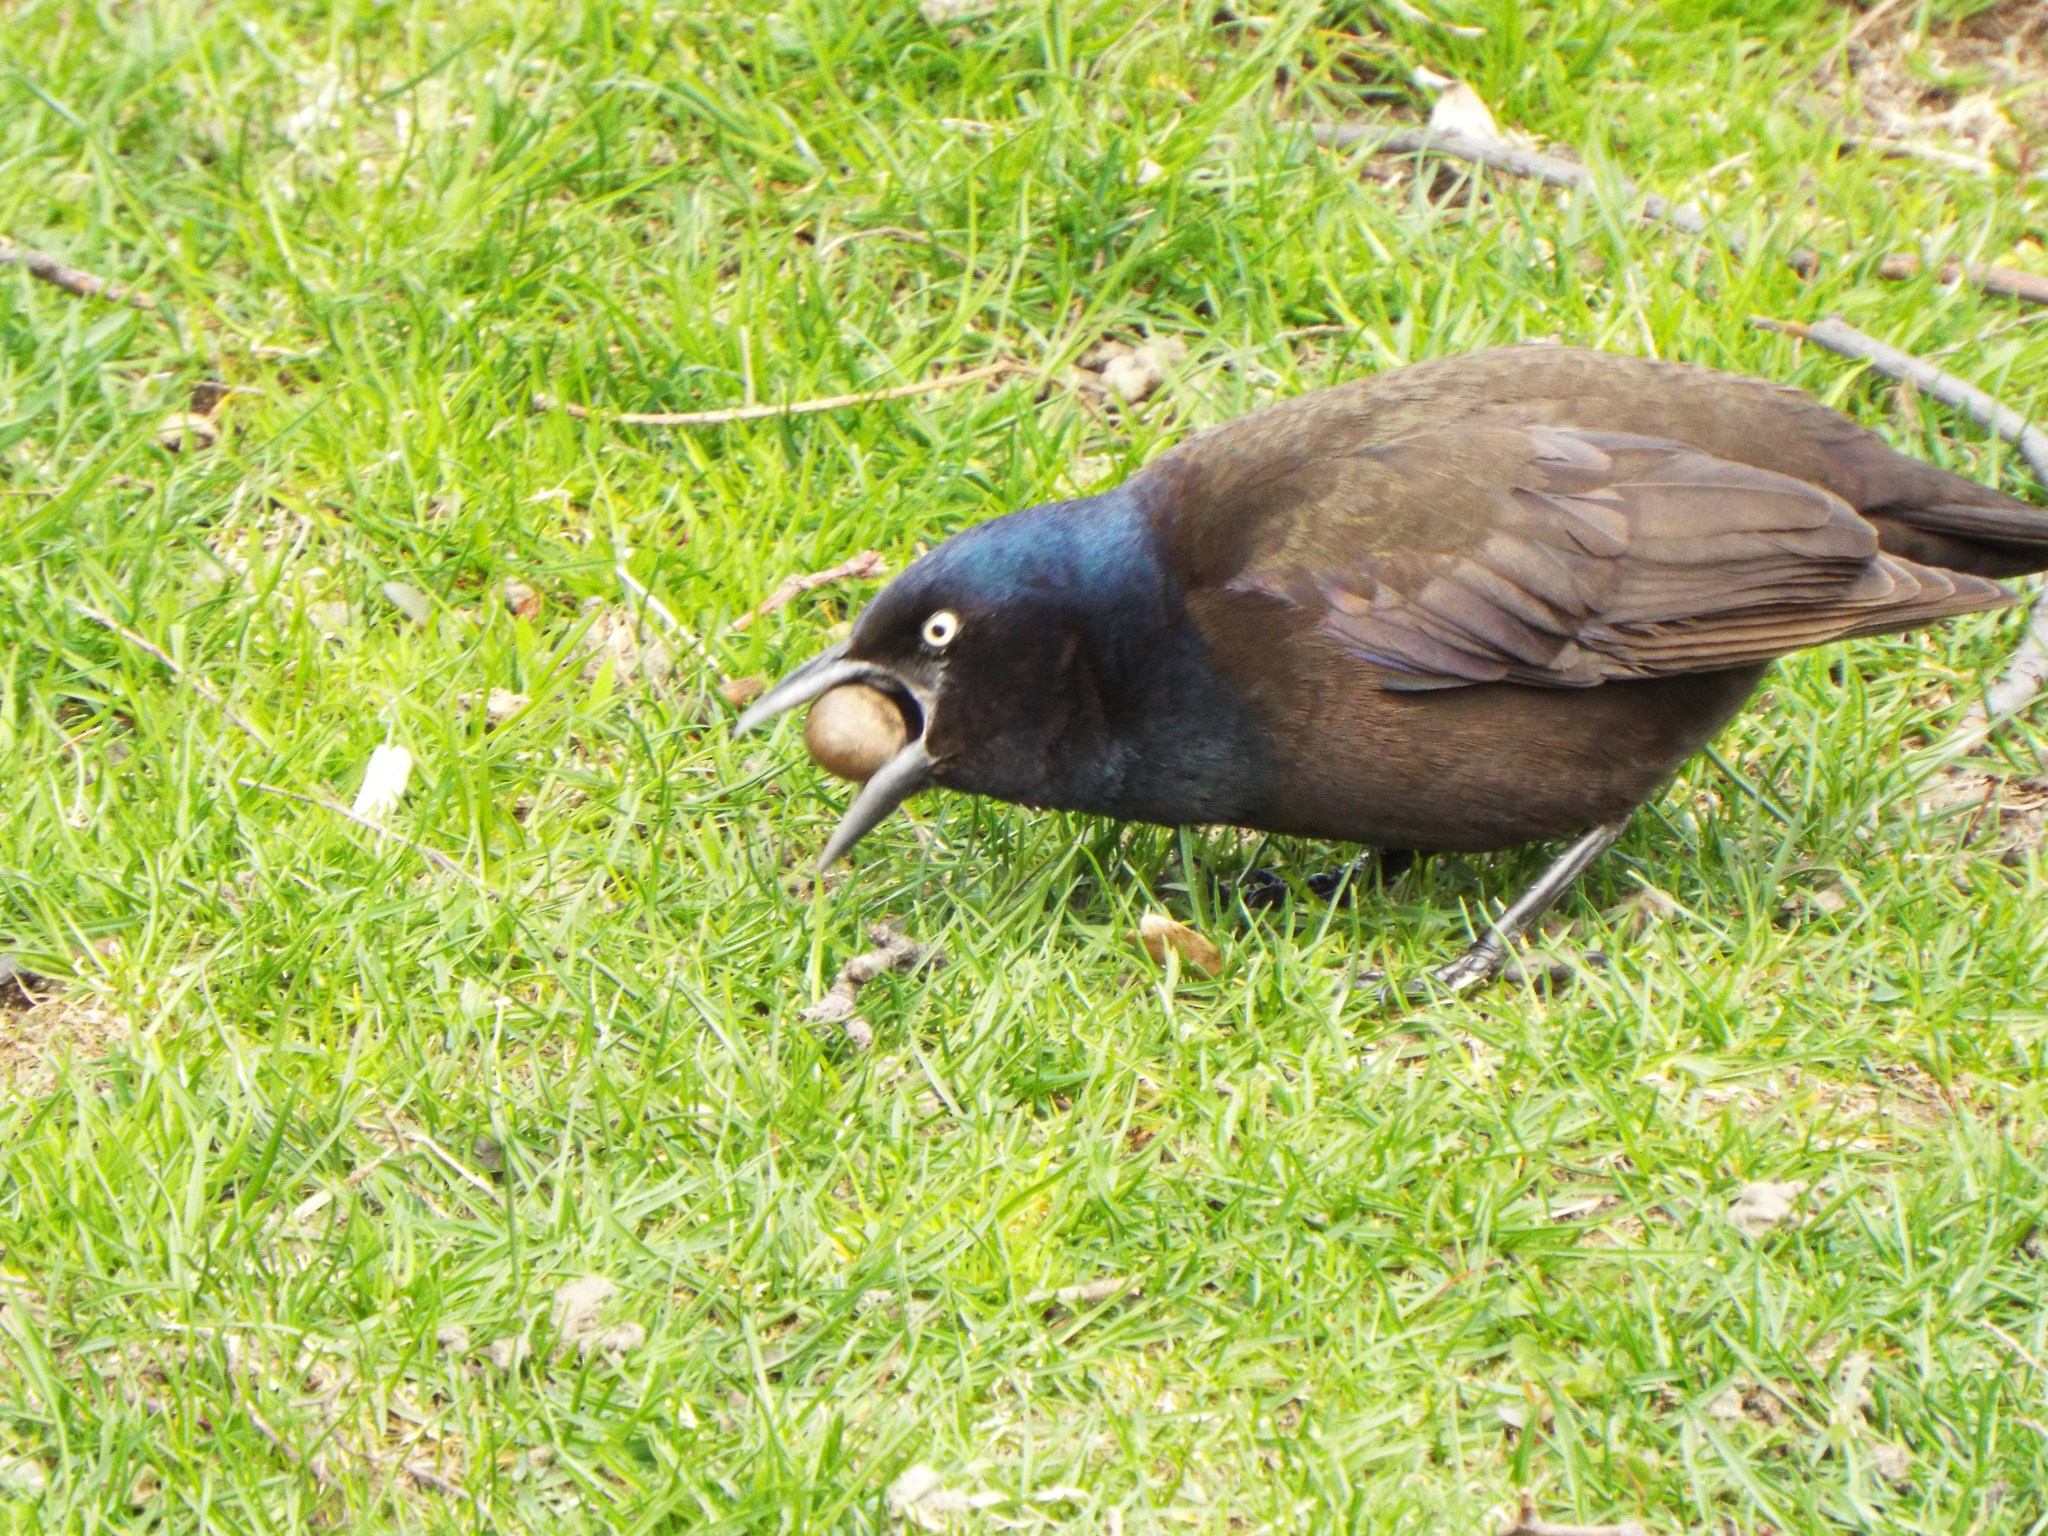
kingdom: Animalia
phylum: Chordata
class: Aves
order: Passeriformes
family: Icteridae
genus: Quiscalus
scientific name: Quiscalus quiscula
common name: Common grackle
